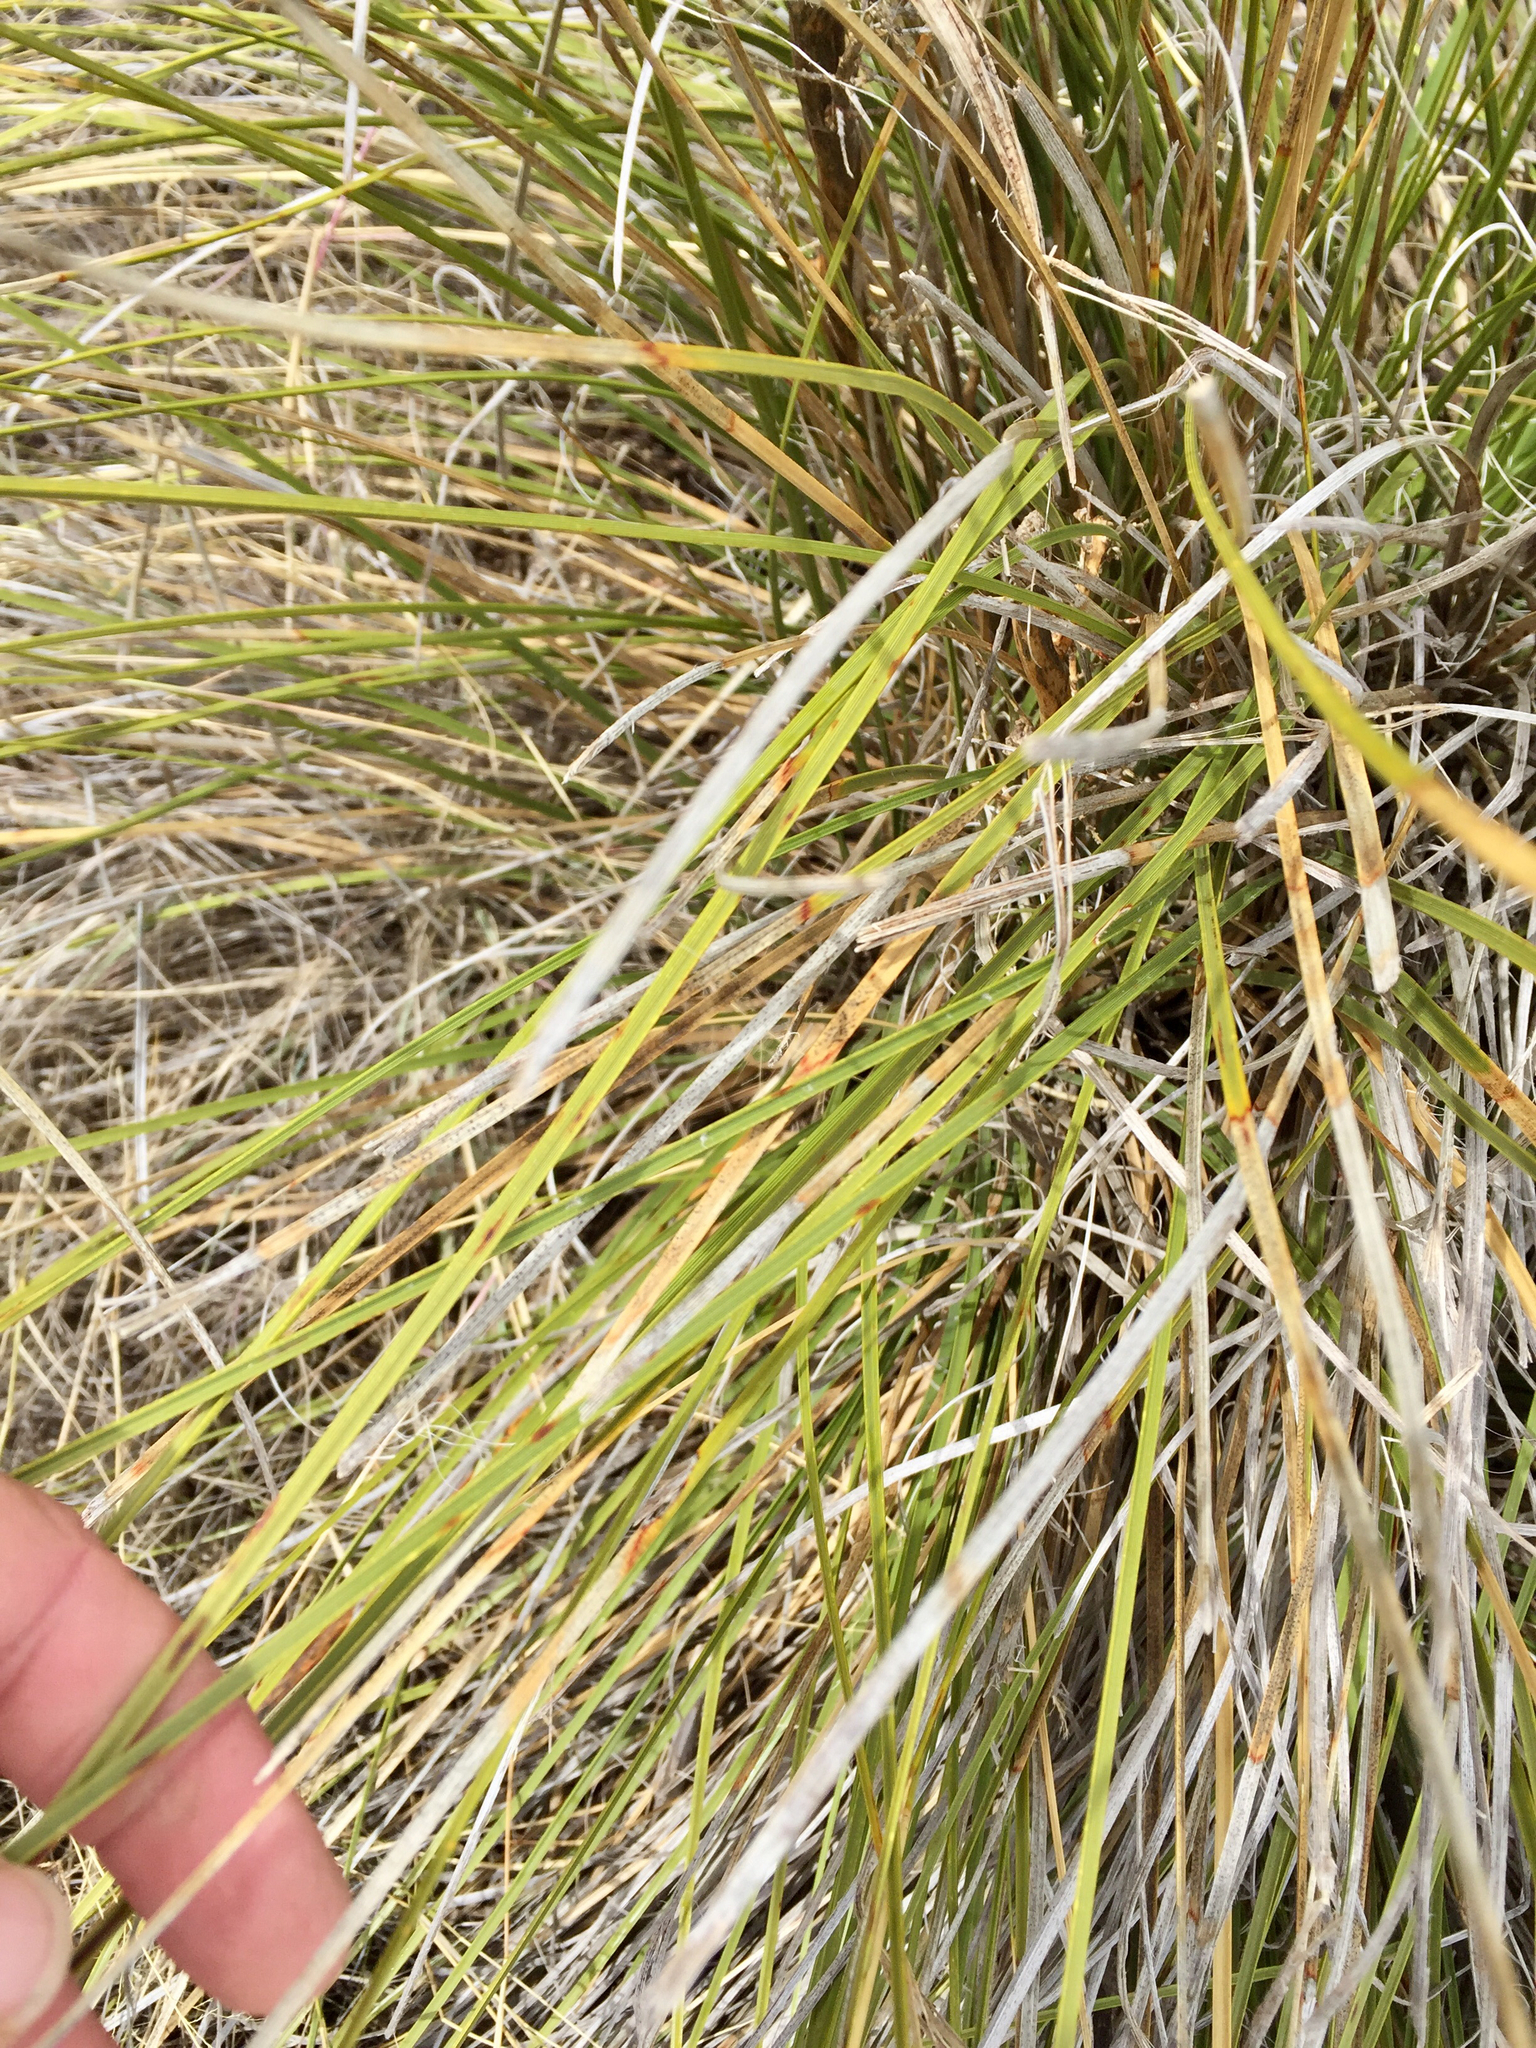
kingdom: Plantae
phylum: Tracheophyta
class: Liliopsida
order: Asparagales
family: Asparagaceae
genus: Nolina
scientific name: Nolina microcarpa
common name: Bear-grass
